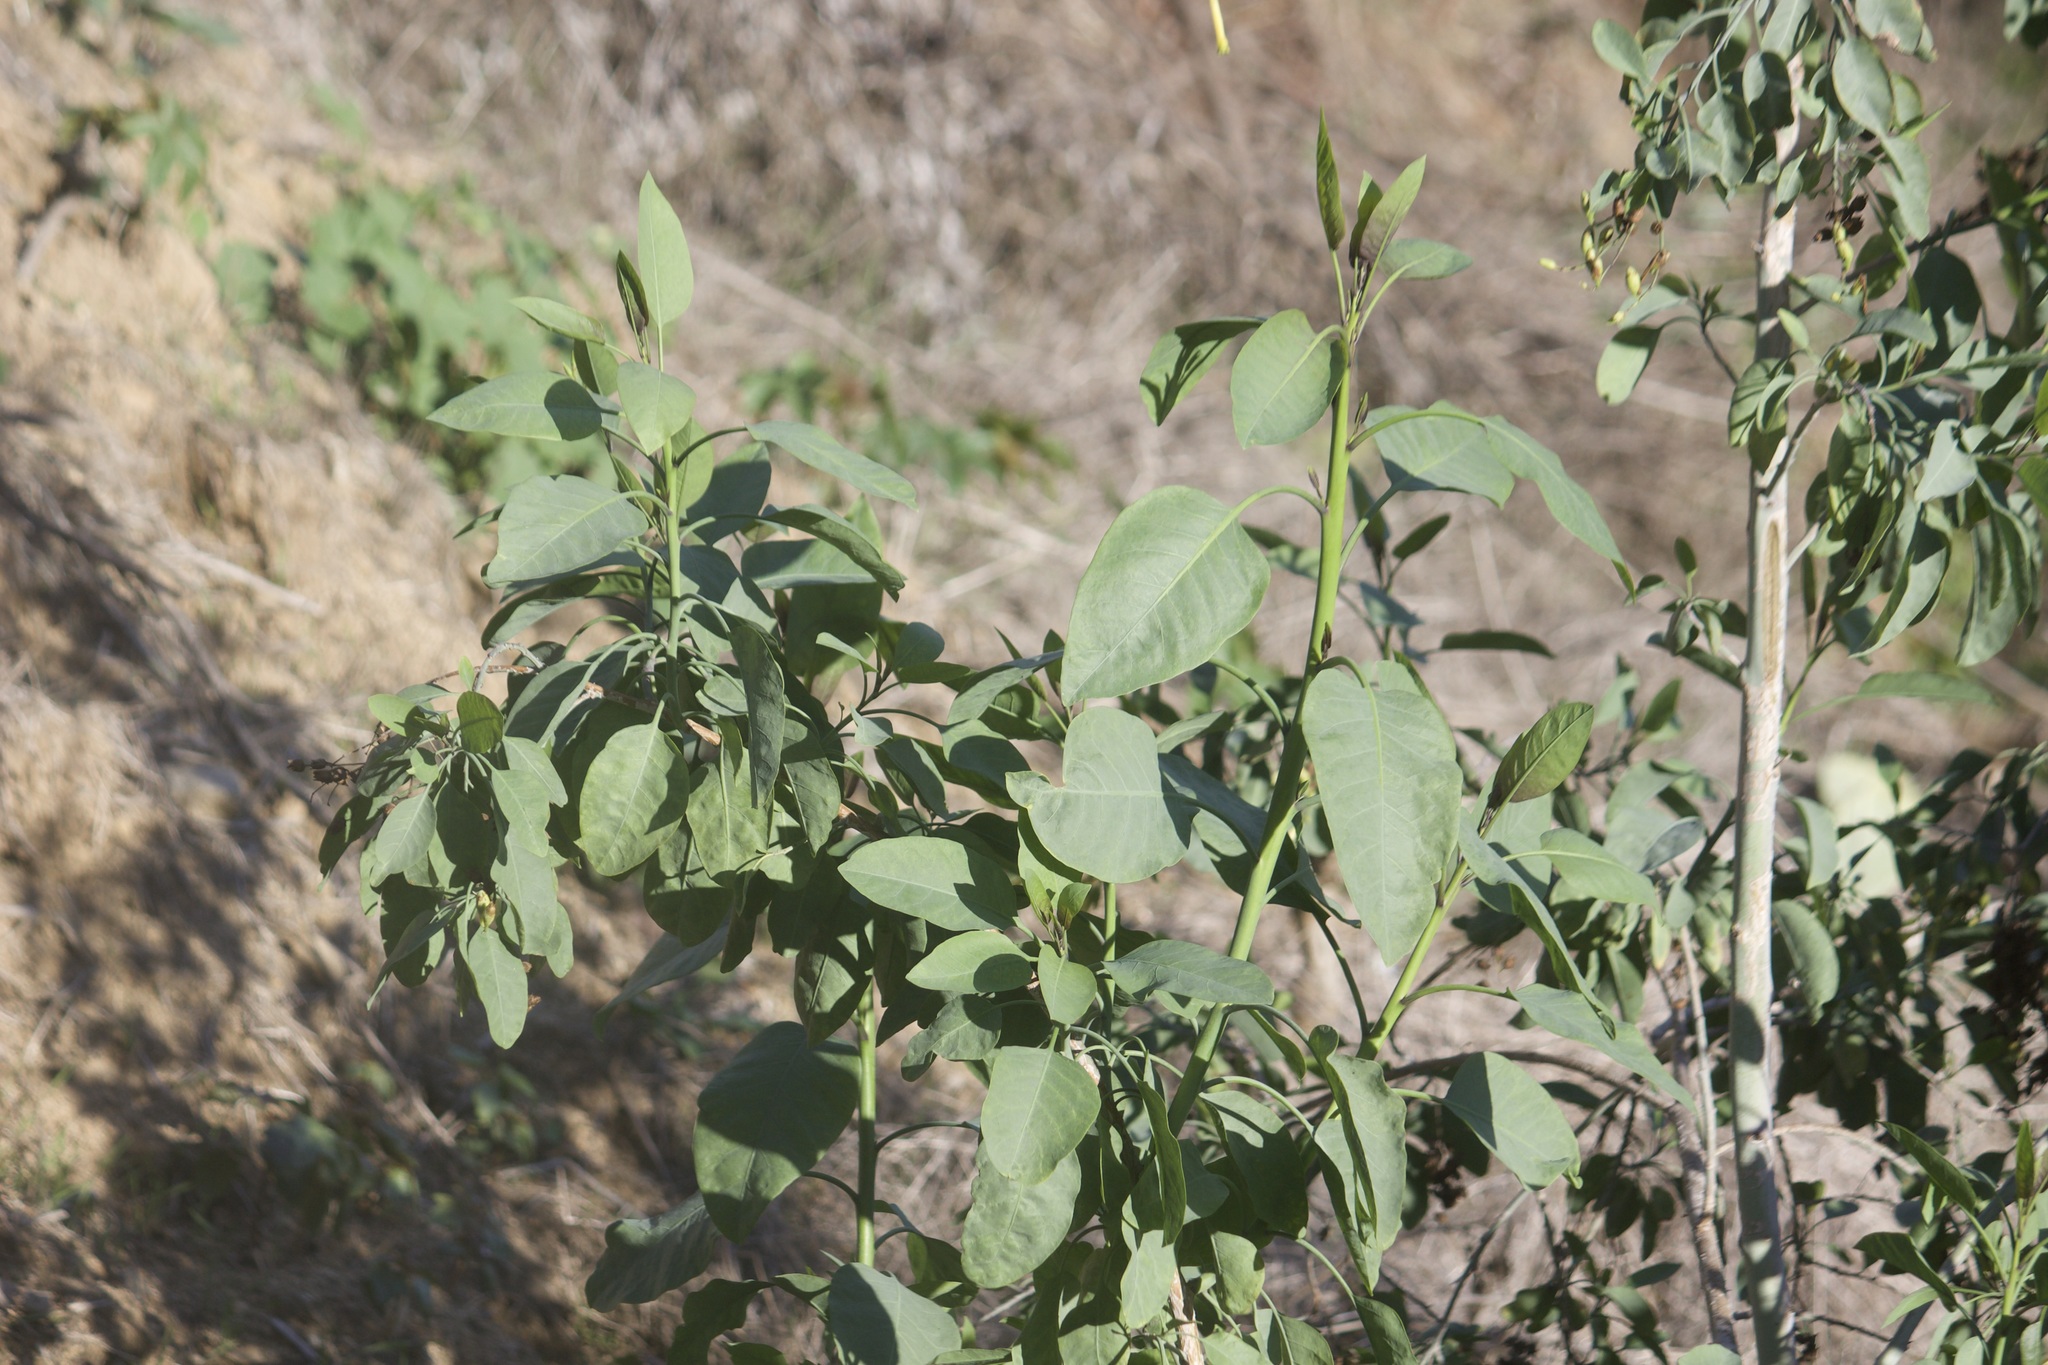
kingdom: Plantae
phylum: Tracheophyta
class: Magnoliopsida
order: Solanales
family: Solanaceae
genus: Nicotiana
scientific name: Nicotiana glauca
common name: Tree tobacco
